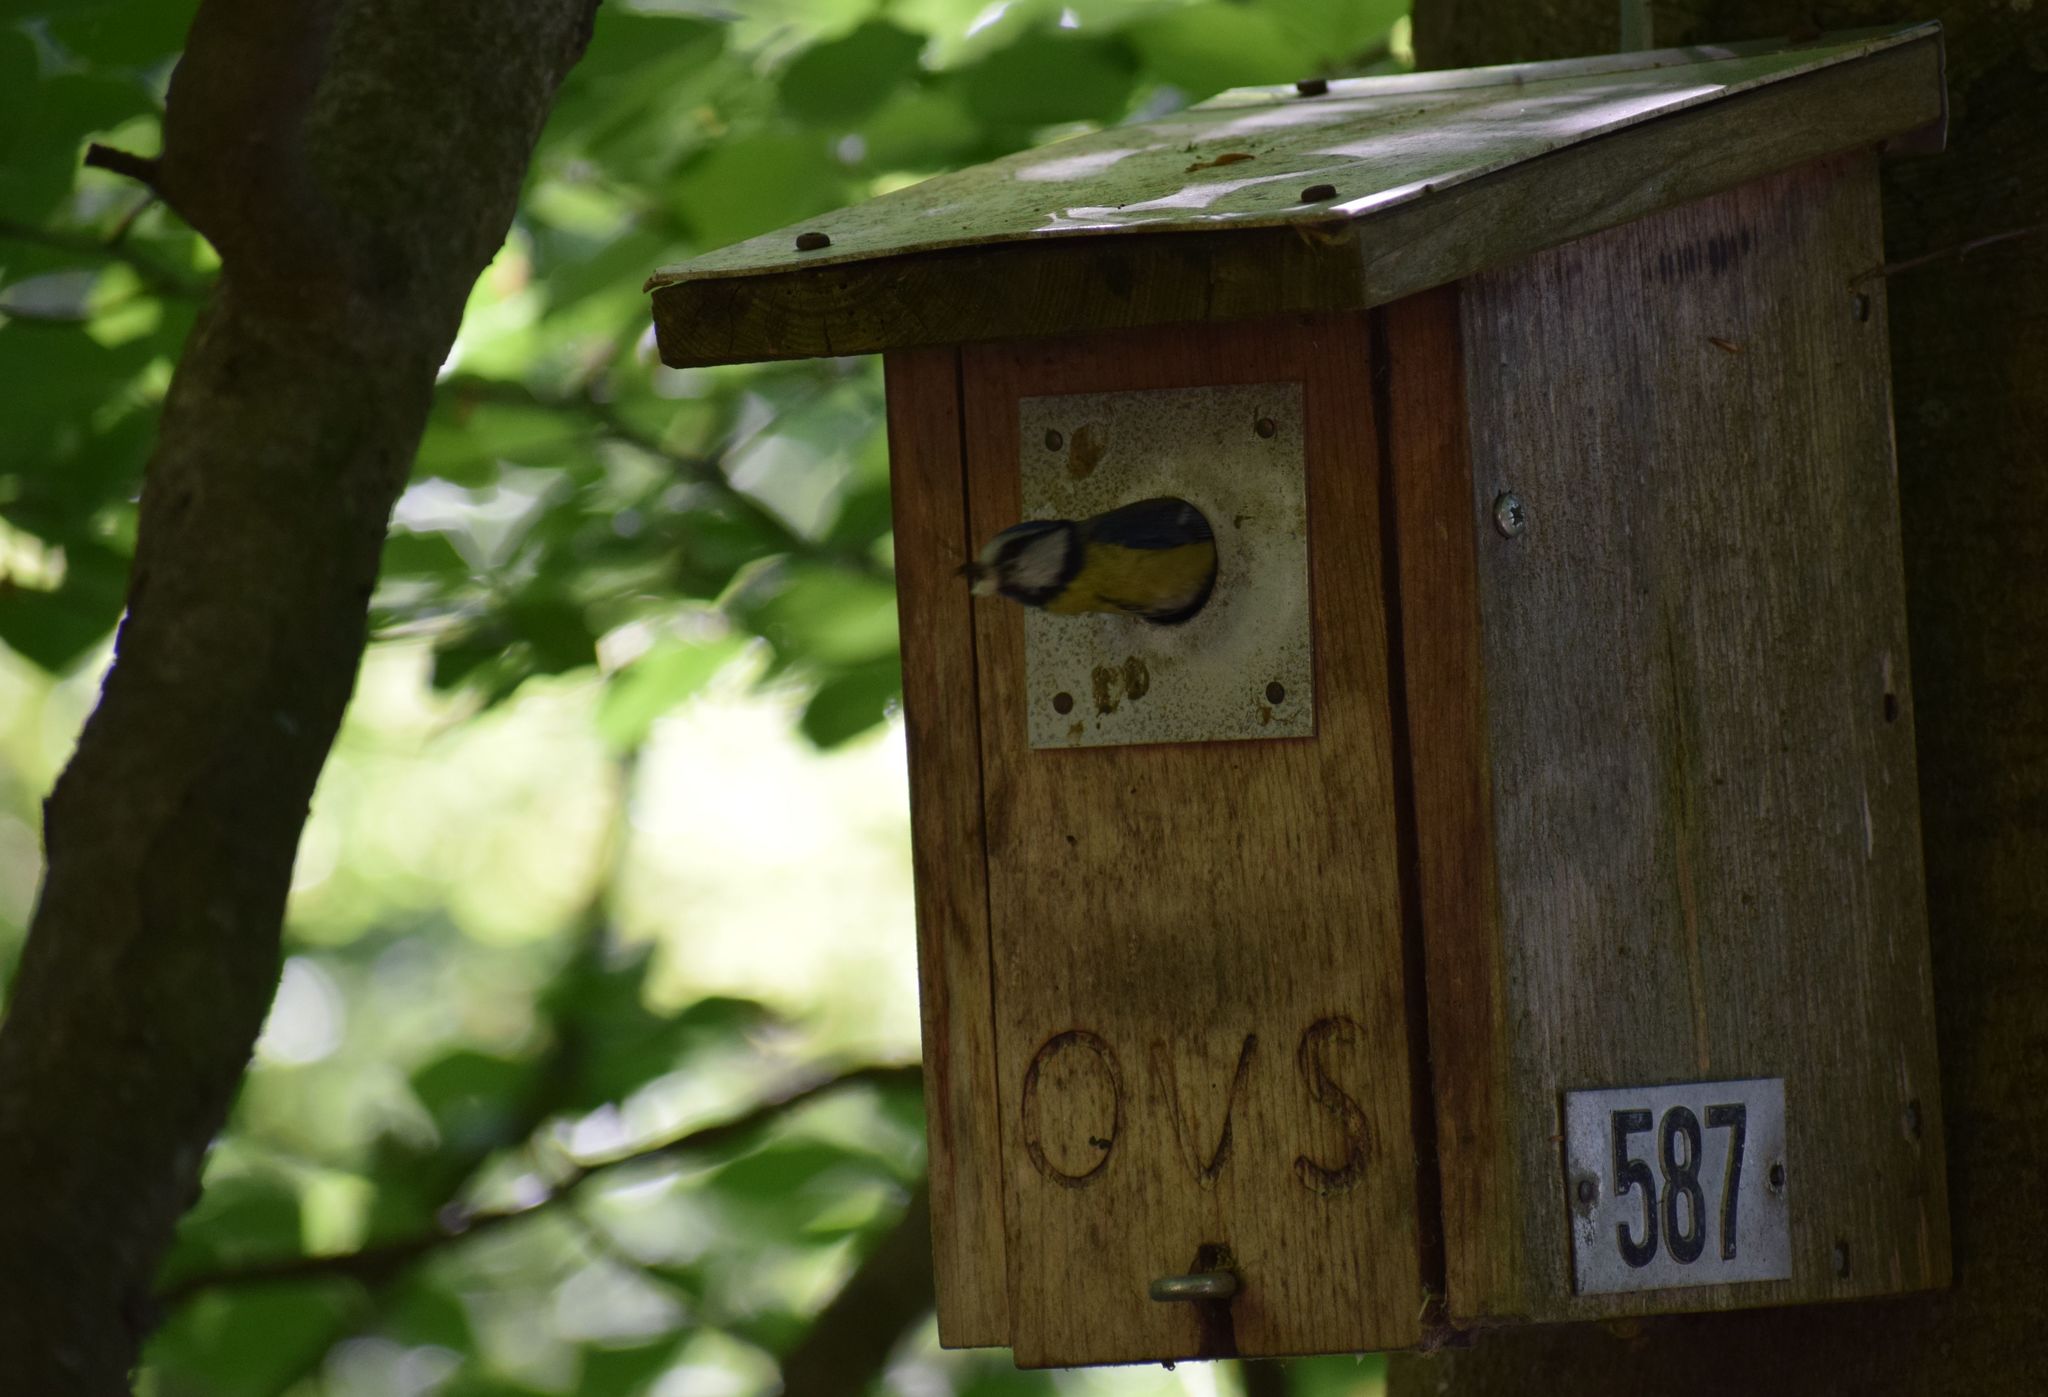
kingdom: Animalia
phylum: Chordata
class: Aves
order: Passeriformes
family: Paridae
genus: Cyanistes
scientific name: Cyanistes caeruleus
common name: Eurasian blue tit
